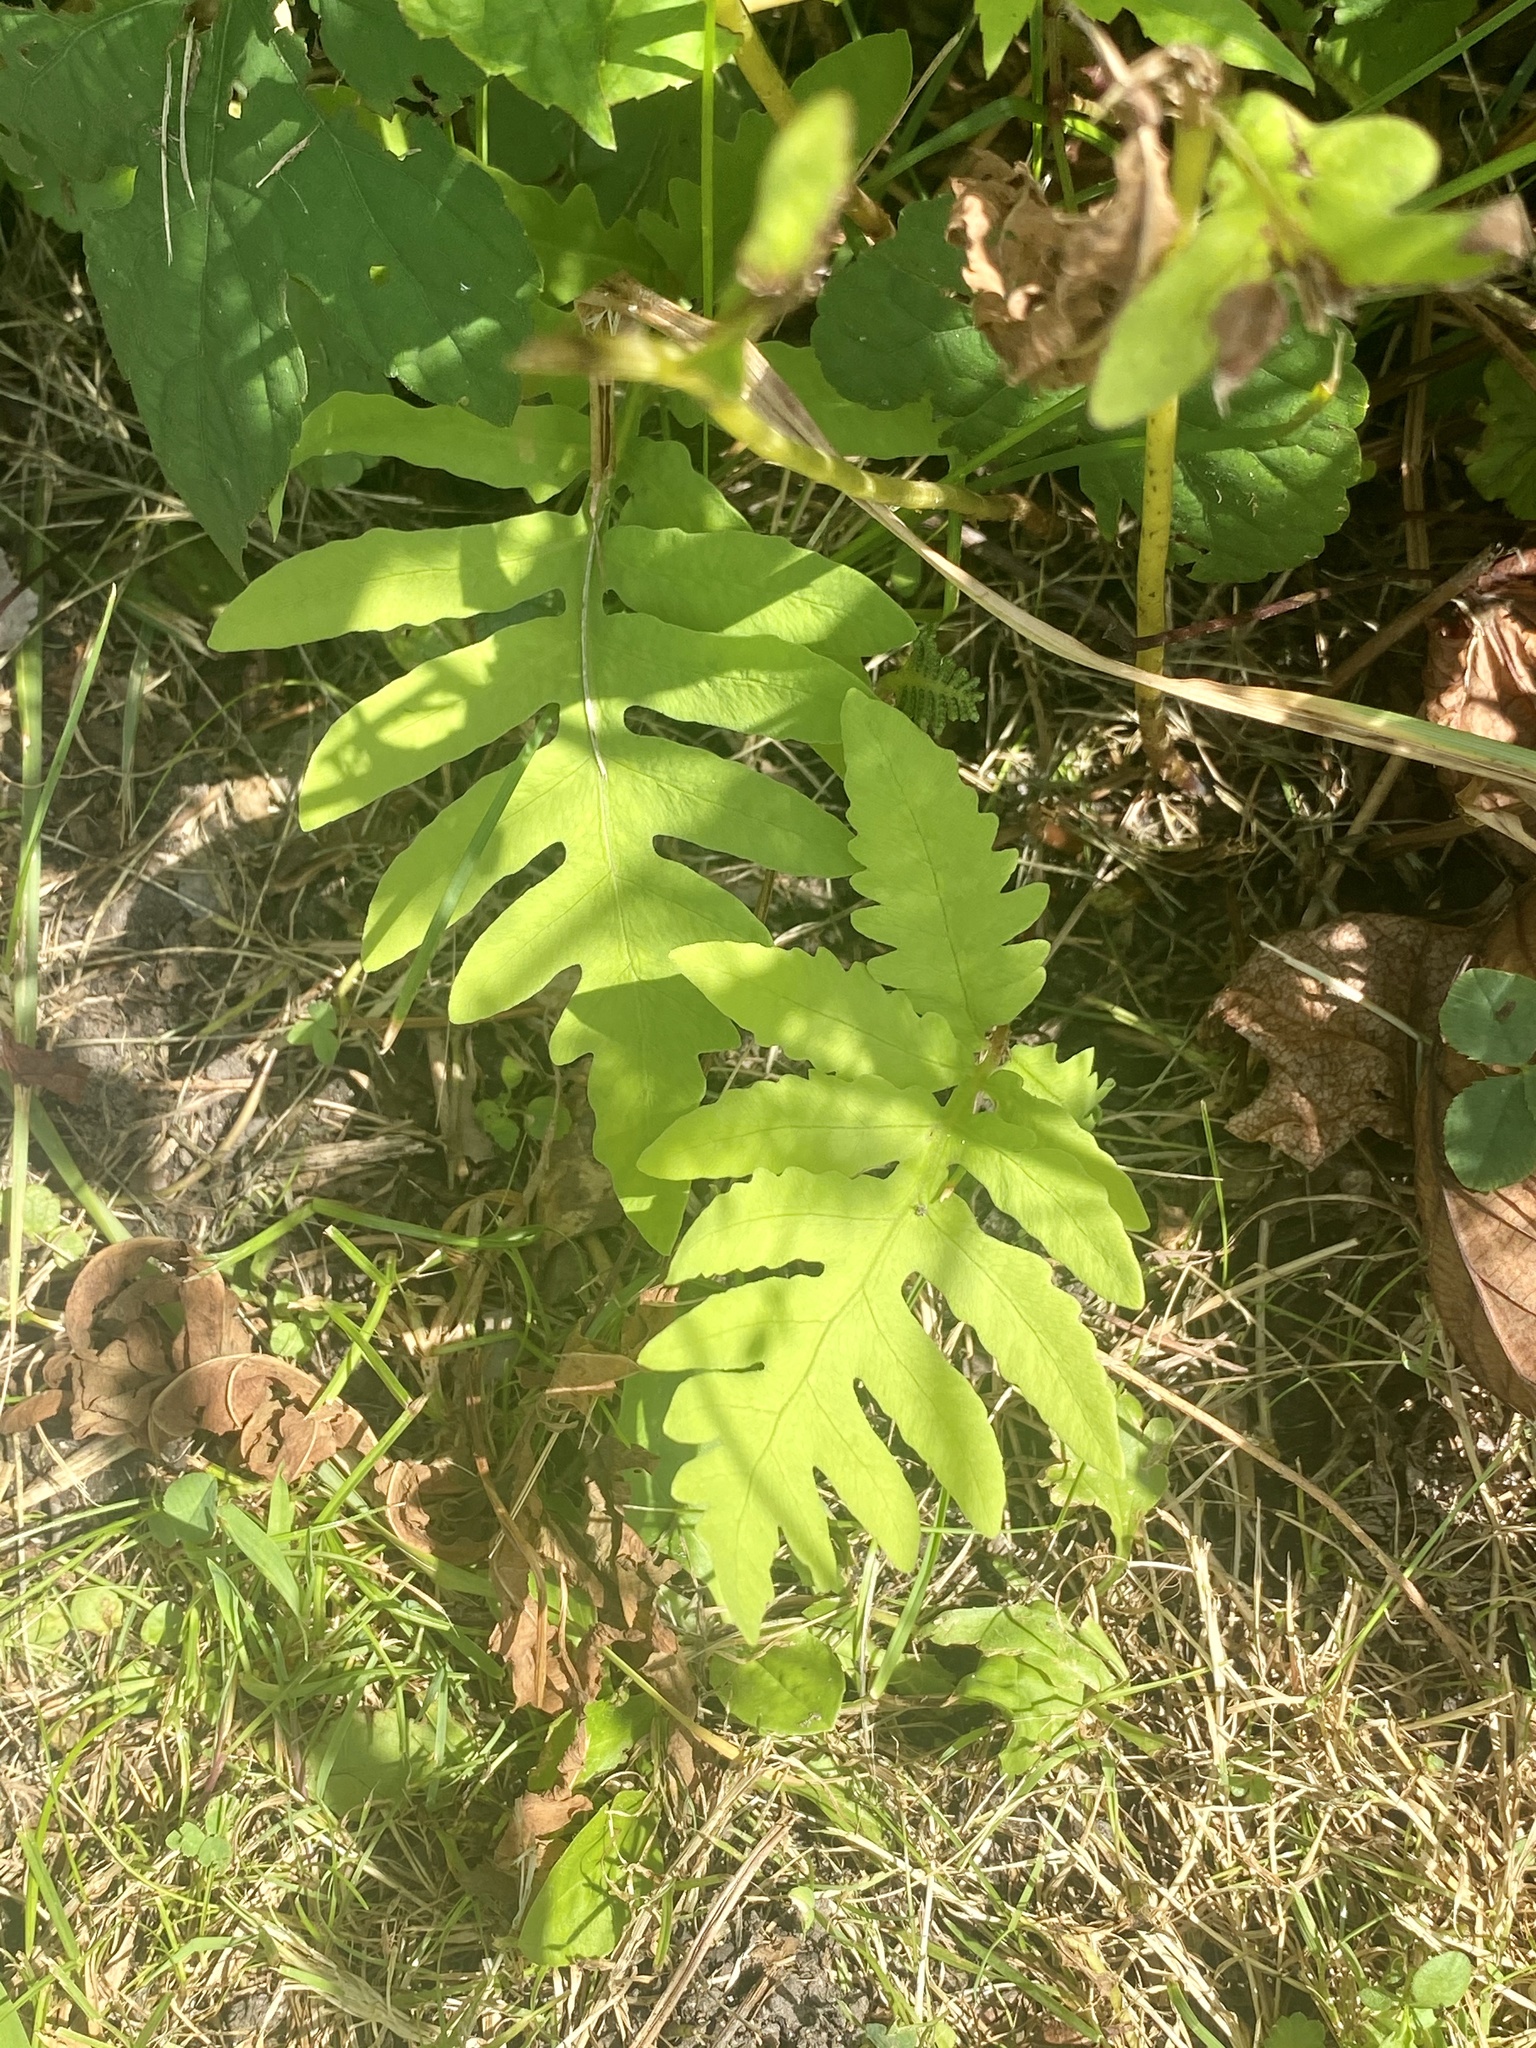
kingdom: Plantae
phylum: Tracheophyta
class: Polypodiopsida
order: Polypodiales
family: Onocleaceae
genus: Onoclea
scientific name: Onoclea sensibilis
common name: Sensitive fern
